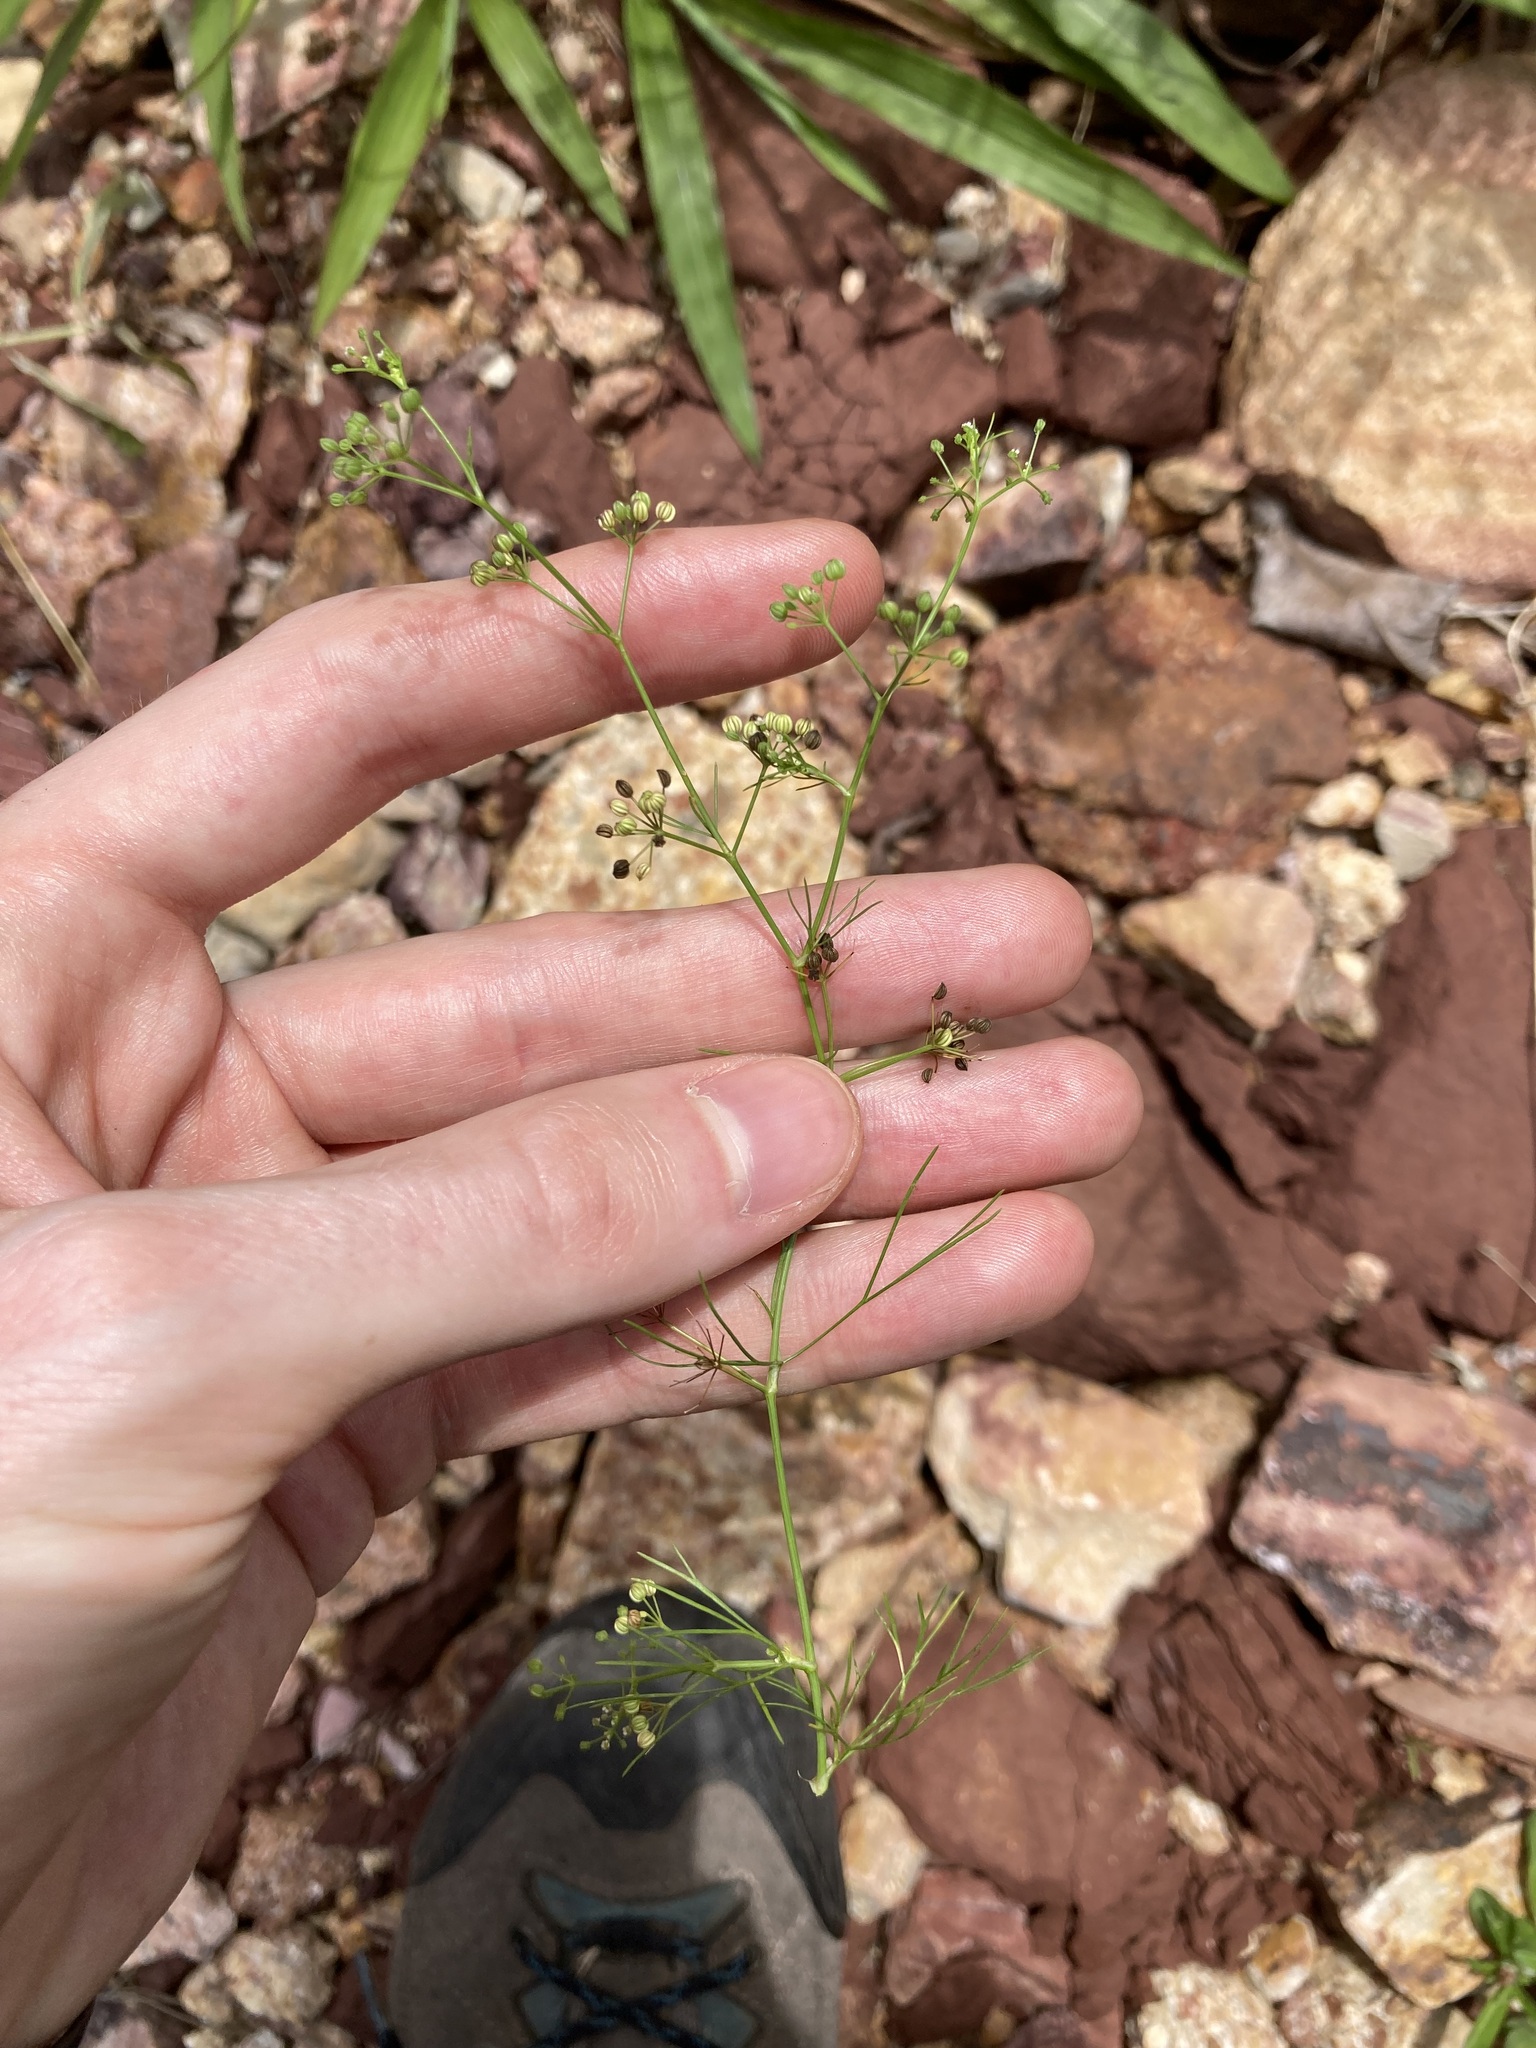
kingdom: Plantae
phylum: Tracheophyta
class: Magnoliopsida
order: Apiales
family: Apiaceae
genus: Cyclospermum
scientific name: Cyclospermum leptophyllum
